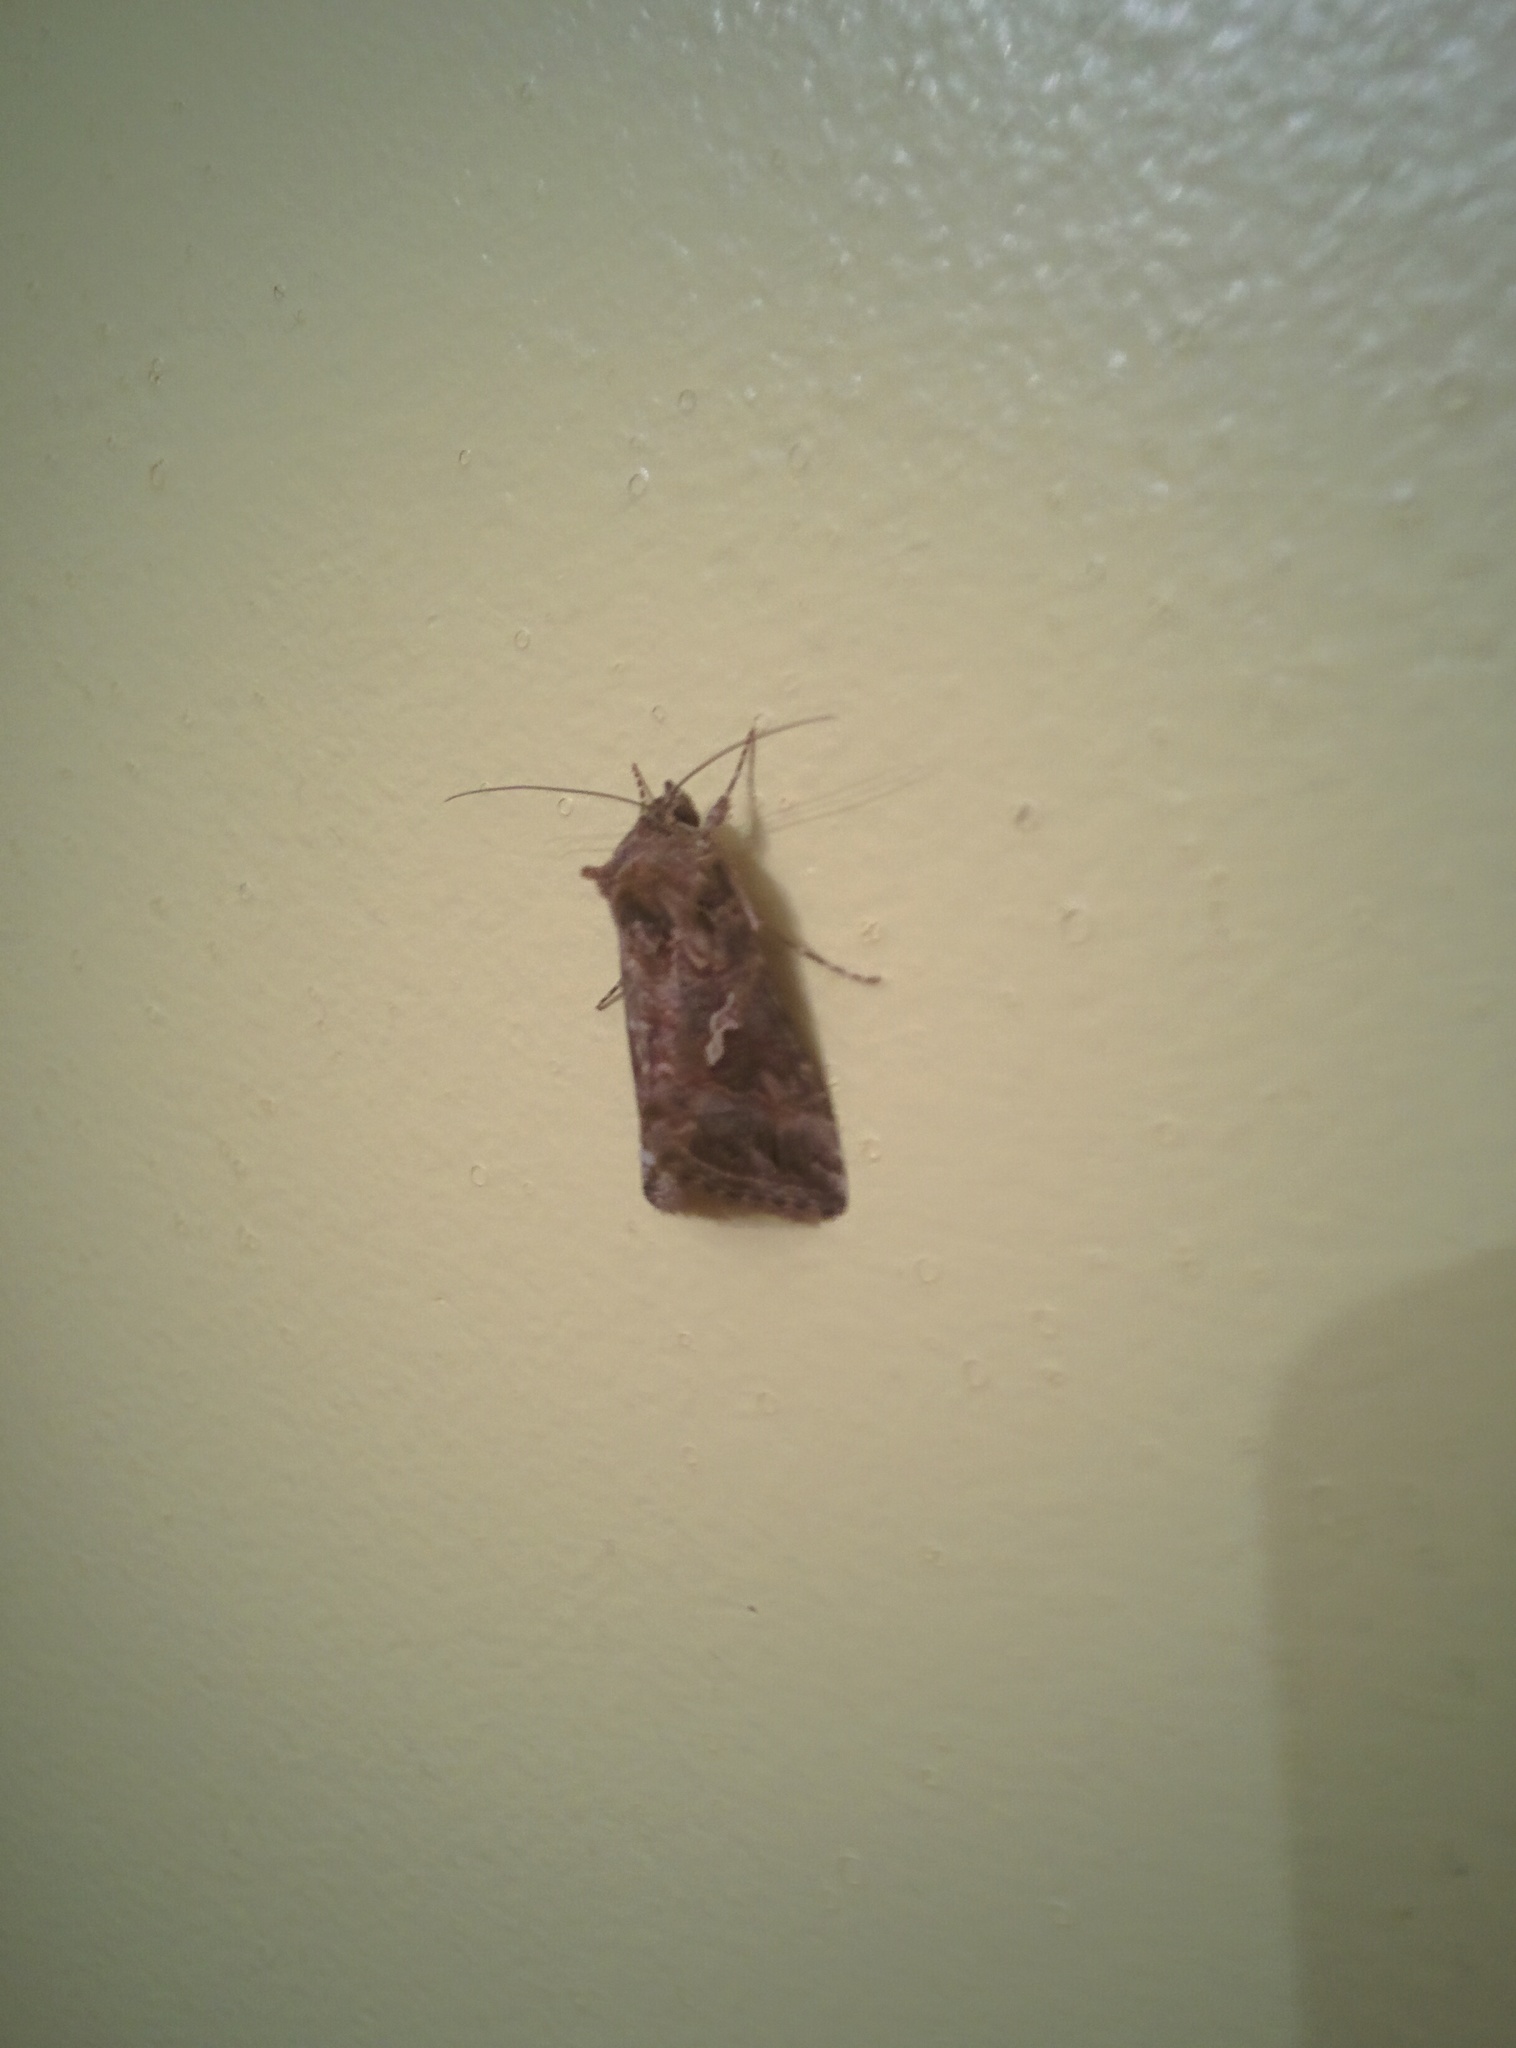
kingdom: Animalia
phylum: Arthropoda
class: Insecta
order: Lepidoptera
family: Noctuidae
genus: Autographa
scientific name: Autographa gamma
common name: Silver y
